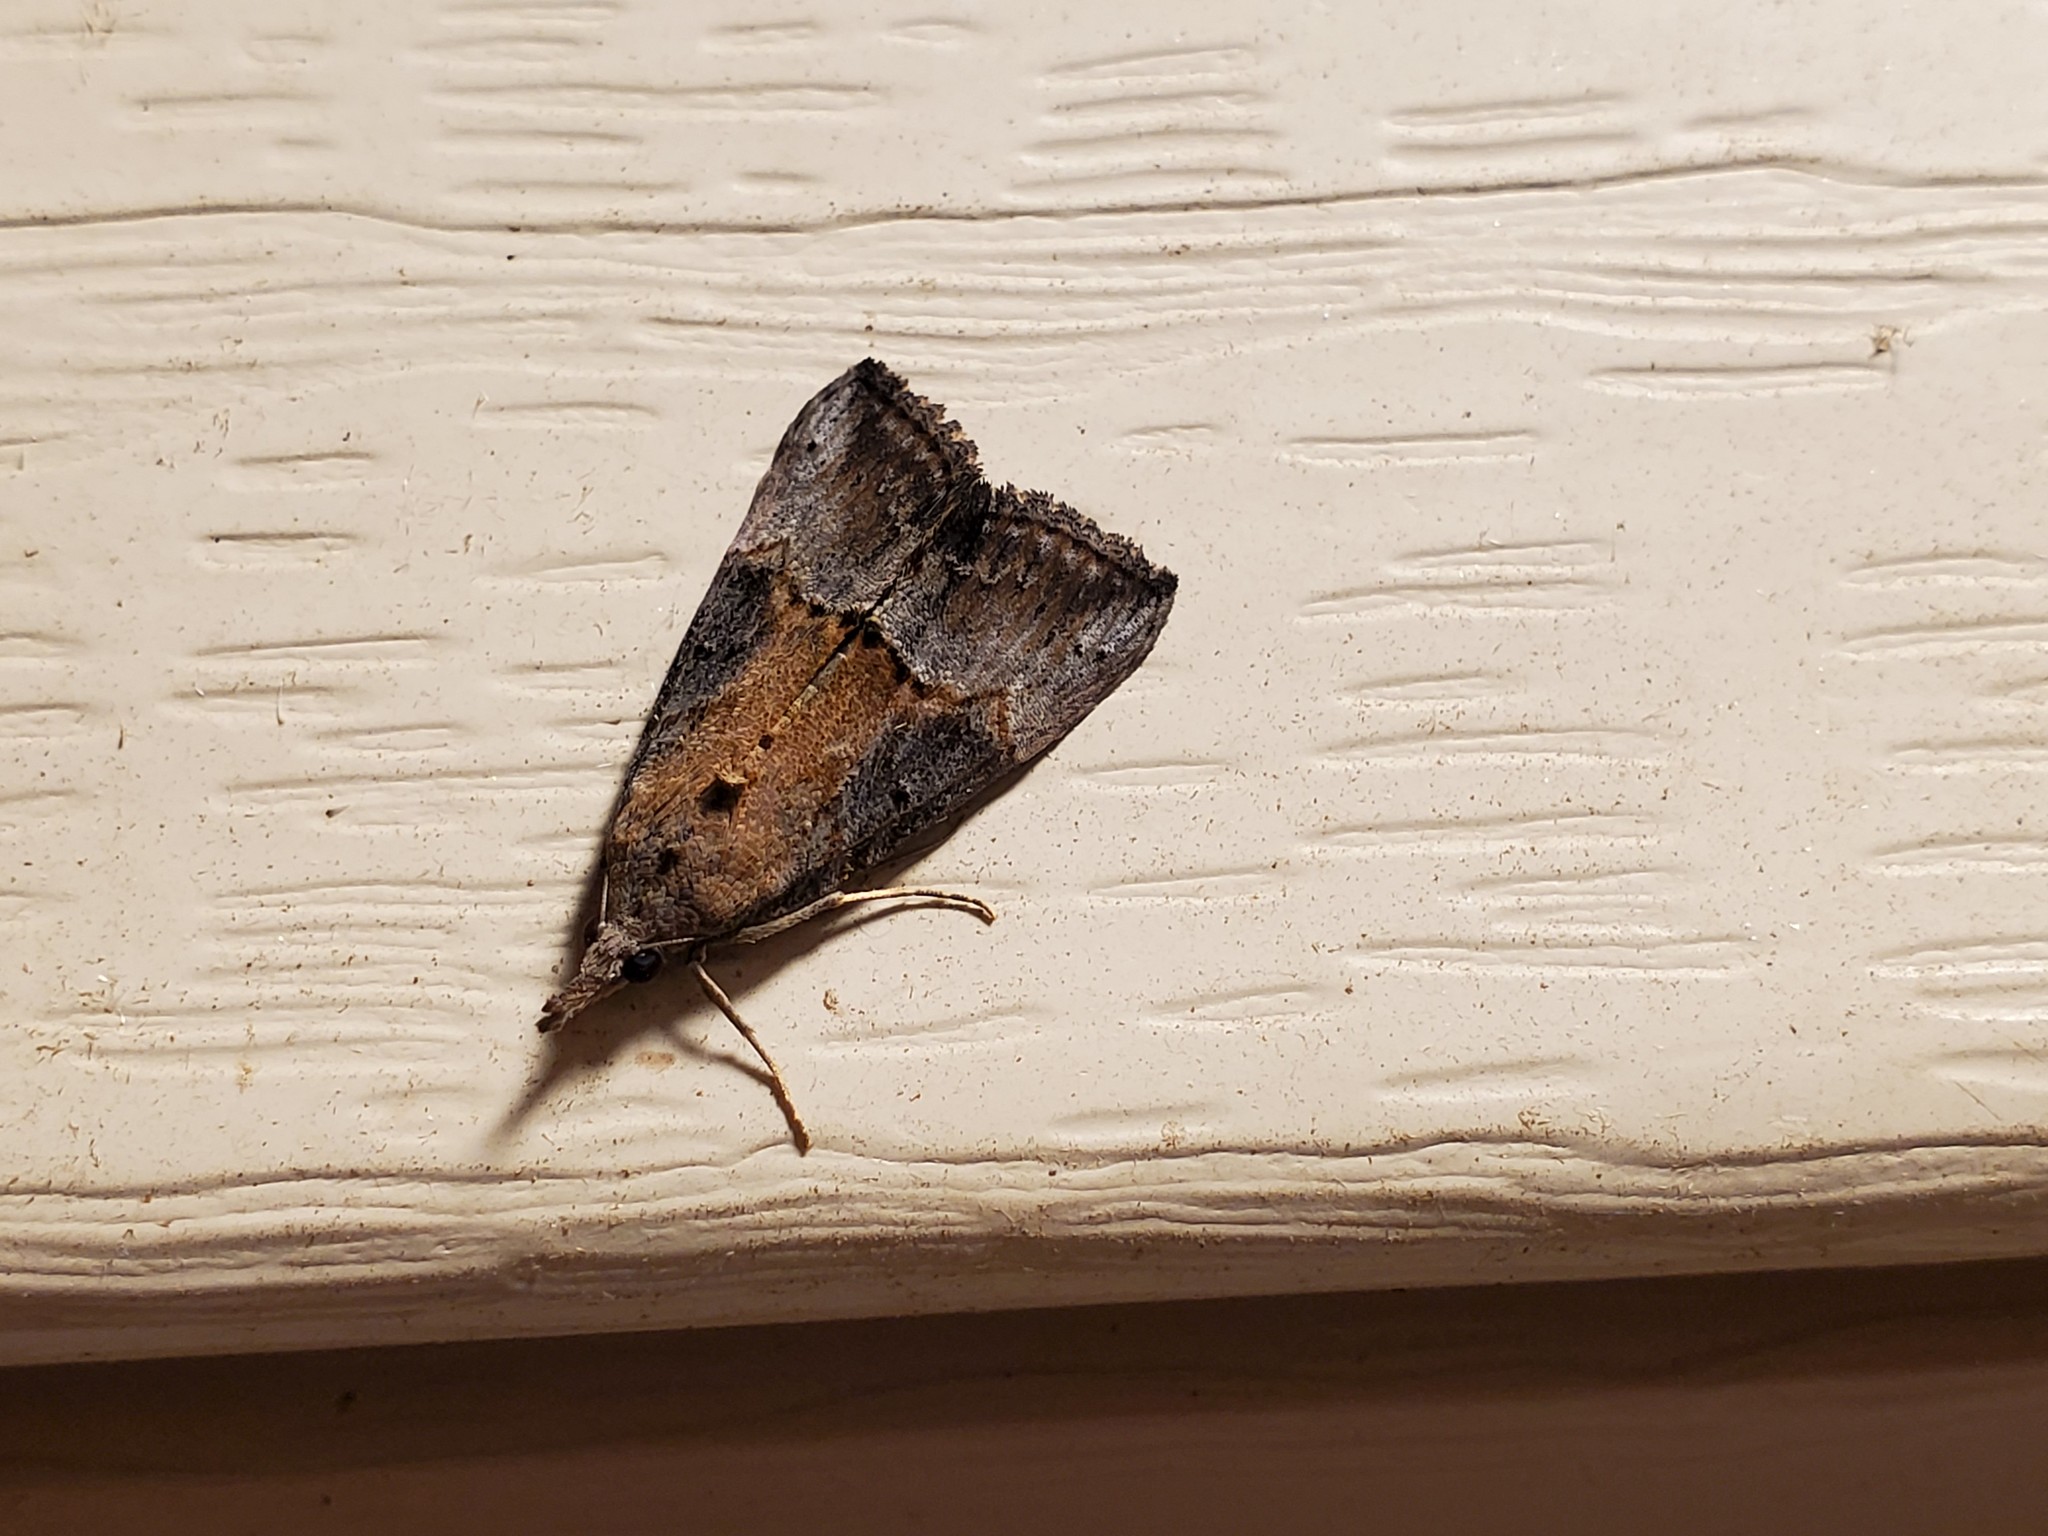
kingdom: Animalia
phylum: Arthropoda
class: Insecta
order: Lepidoptera
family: Erebidae
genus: Hypena
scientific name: Hypena scabra
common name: Green cloverworm
